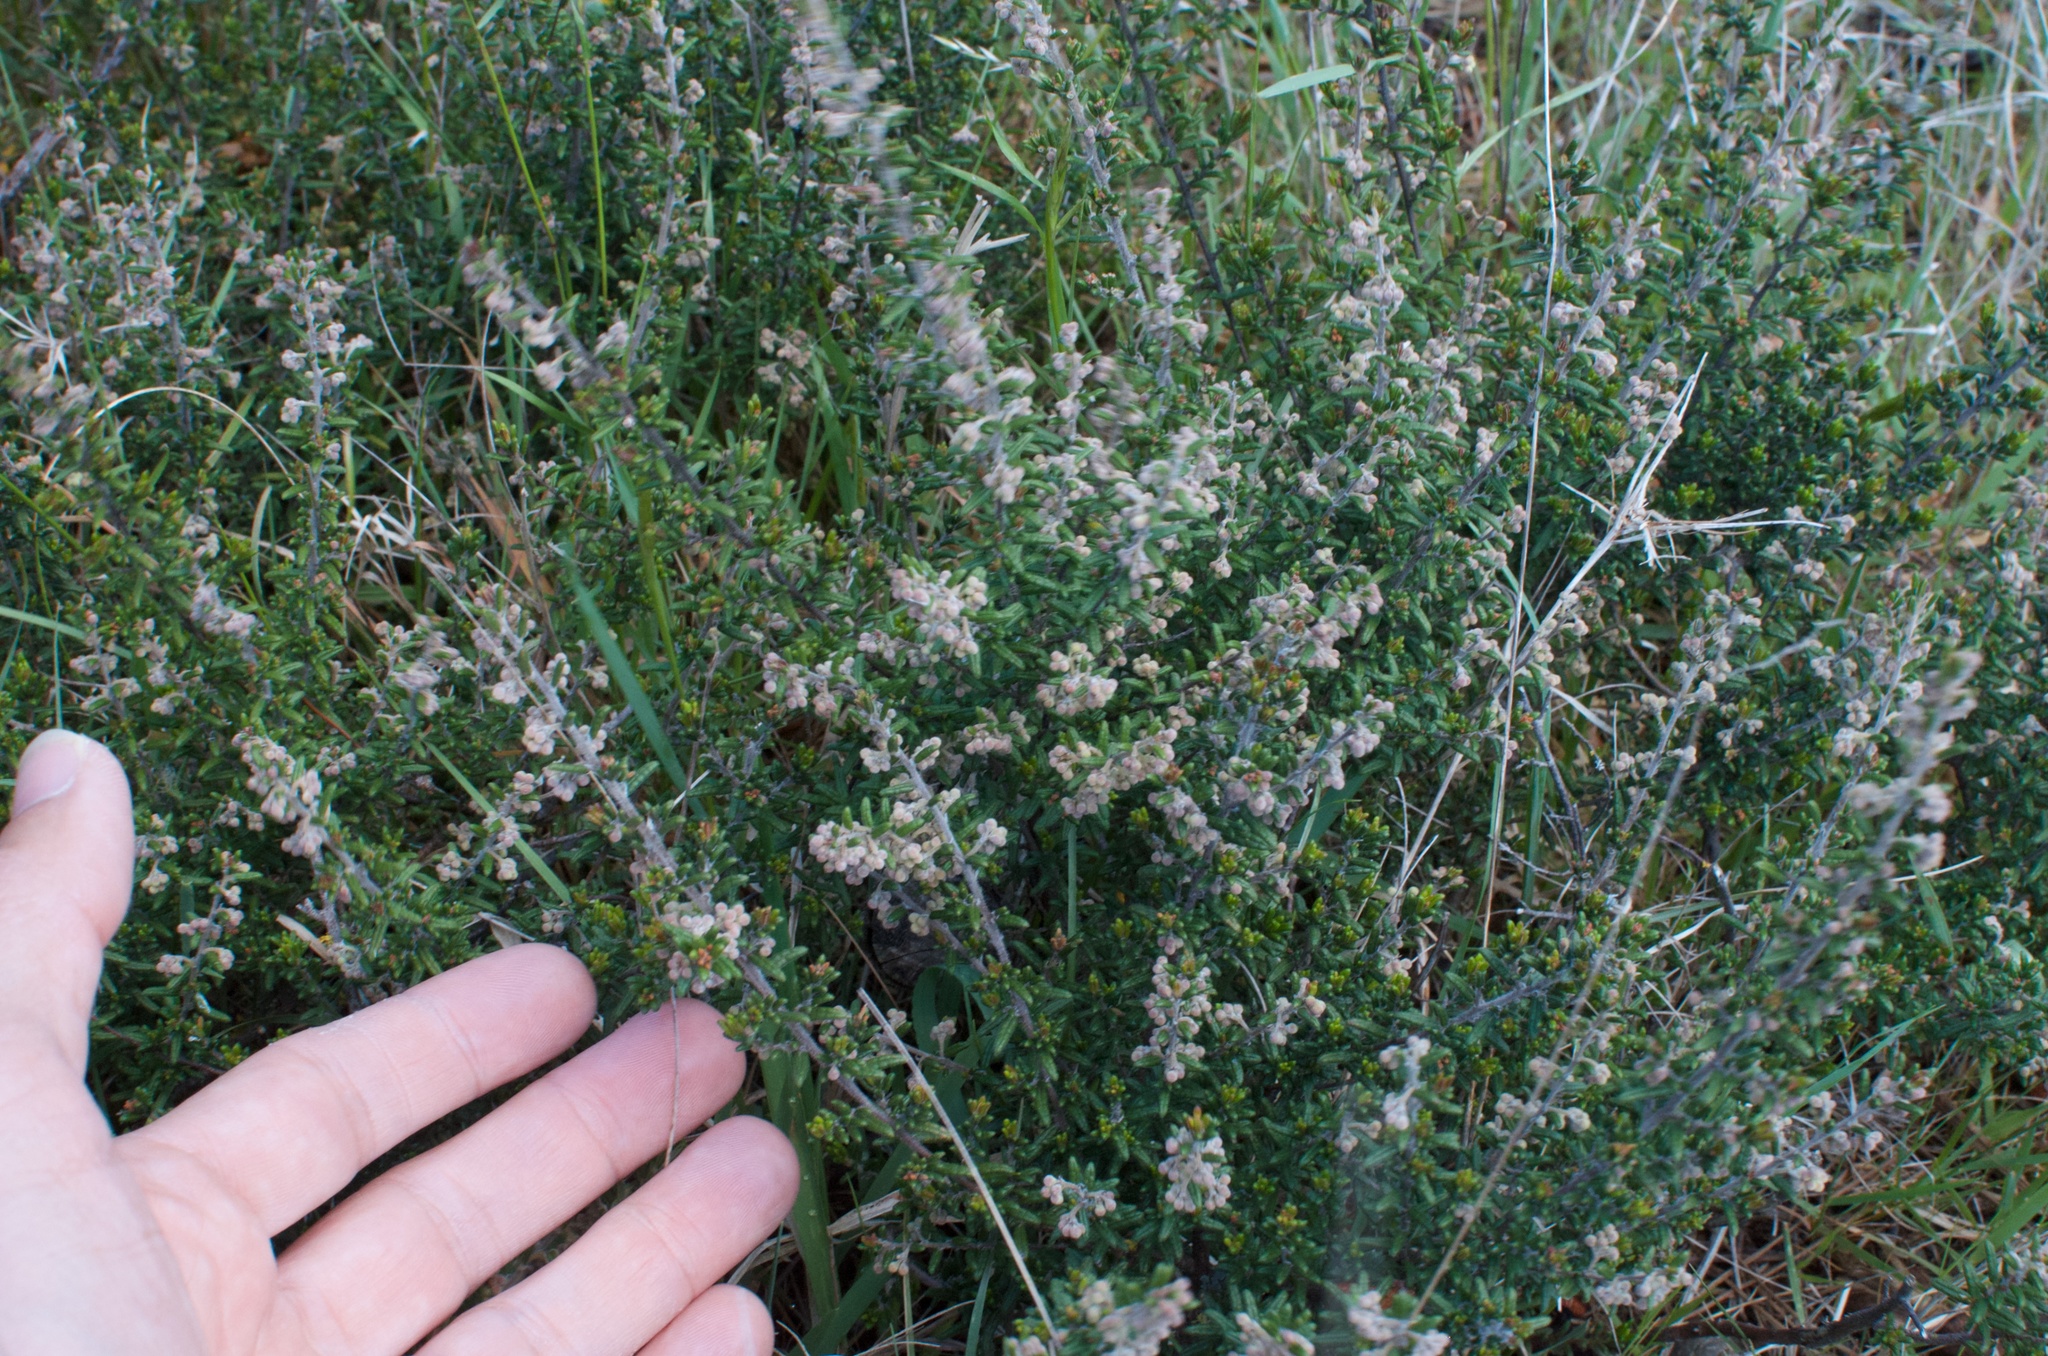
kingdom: Plantae
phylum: Tracheophyta
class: Magnoliopsida
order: Rosales
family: Rhamnaceae
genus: Pomaderris
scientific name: Pomaderris amoena
